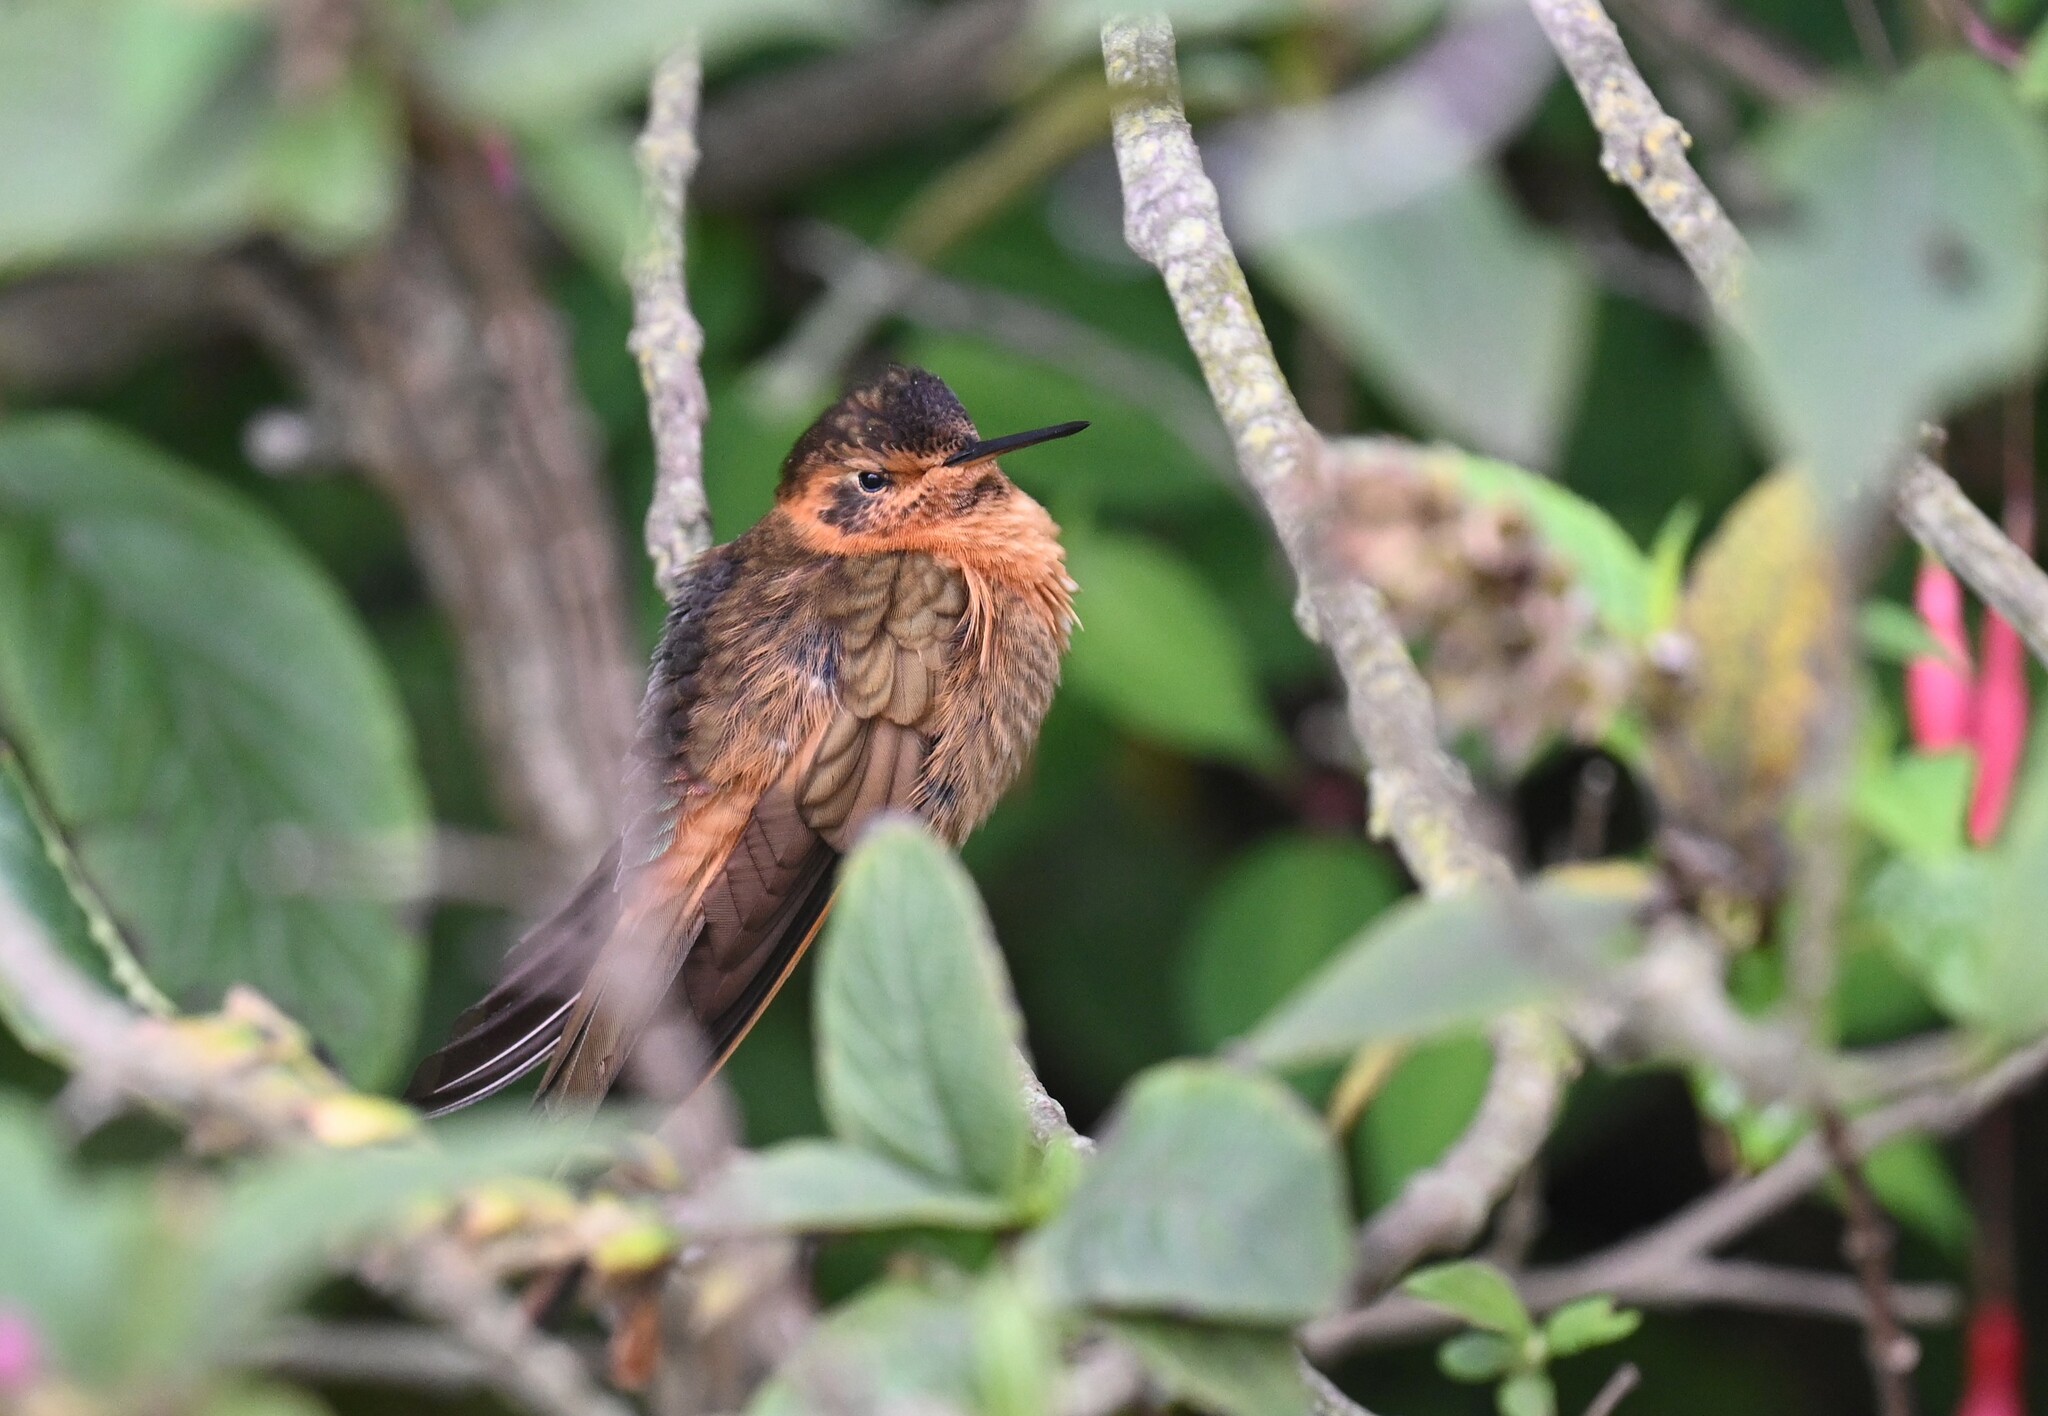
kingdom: Animalia
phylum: Chordata
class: Aves
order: Apodiformes
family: Trochilidae
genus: Aglaeactis
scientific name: Aglaeactis cupripennis
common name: Shining sunbeam
